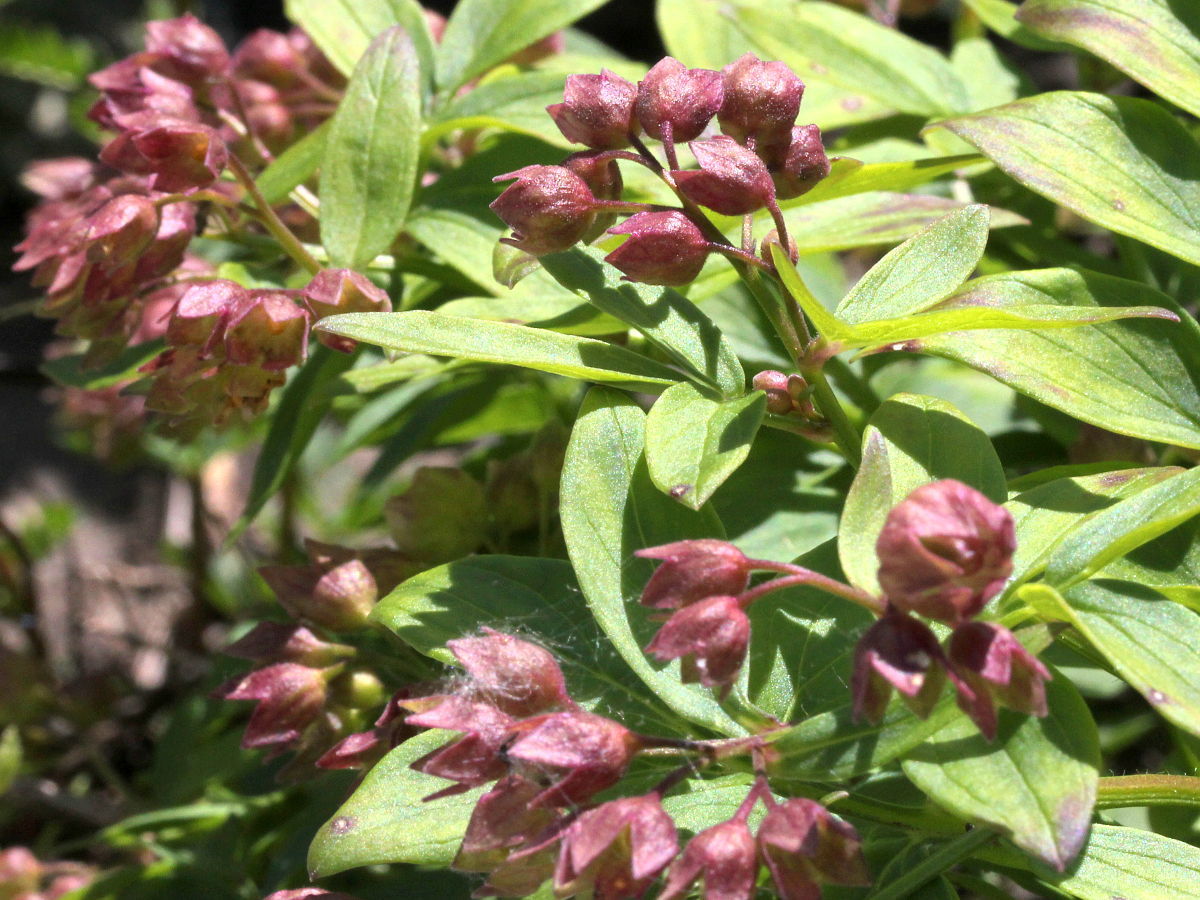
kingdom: Plantae
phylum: Tracheophyta
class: Magnoliopsida
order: Ericales
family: Polemoniaceae
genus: Polemonium
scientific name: Polemonium reptans
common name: Creeping jacob's-ladder
